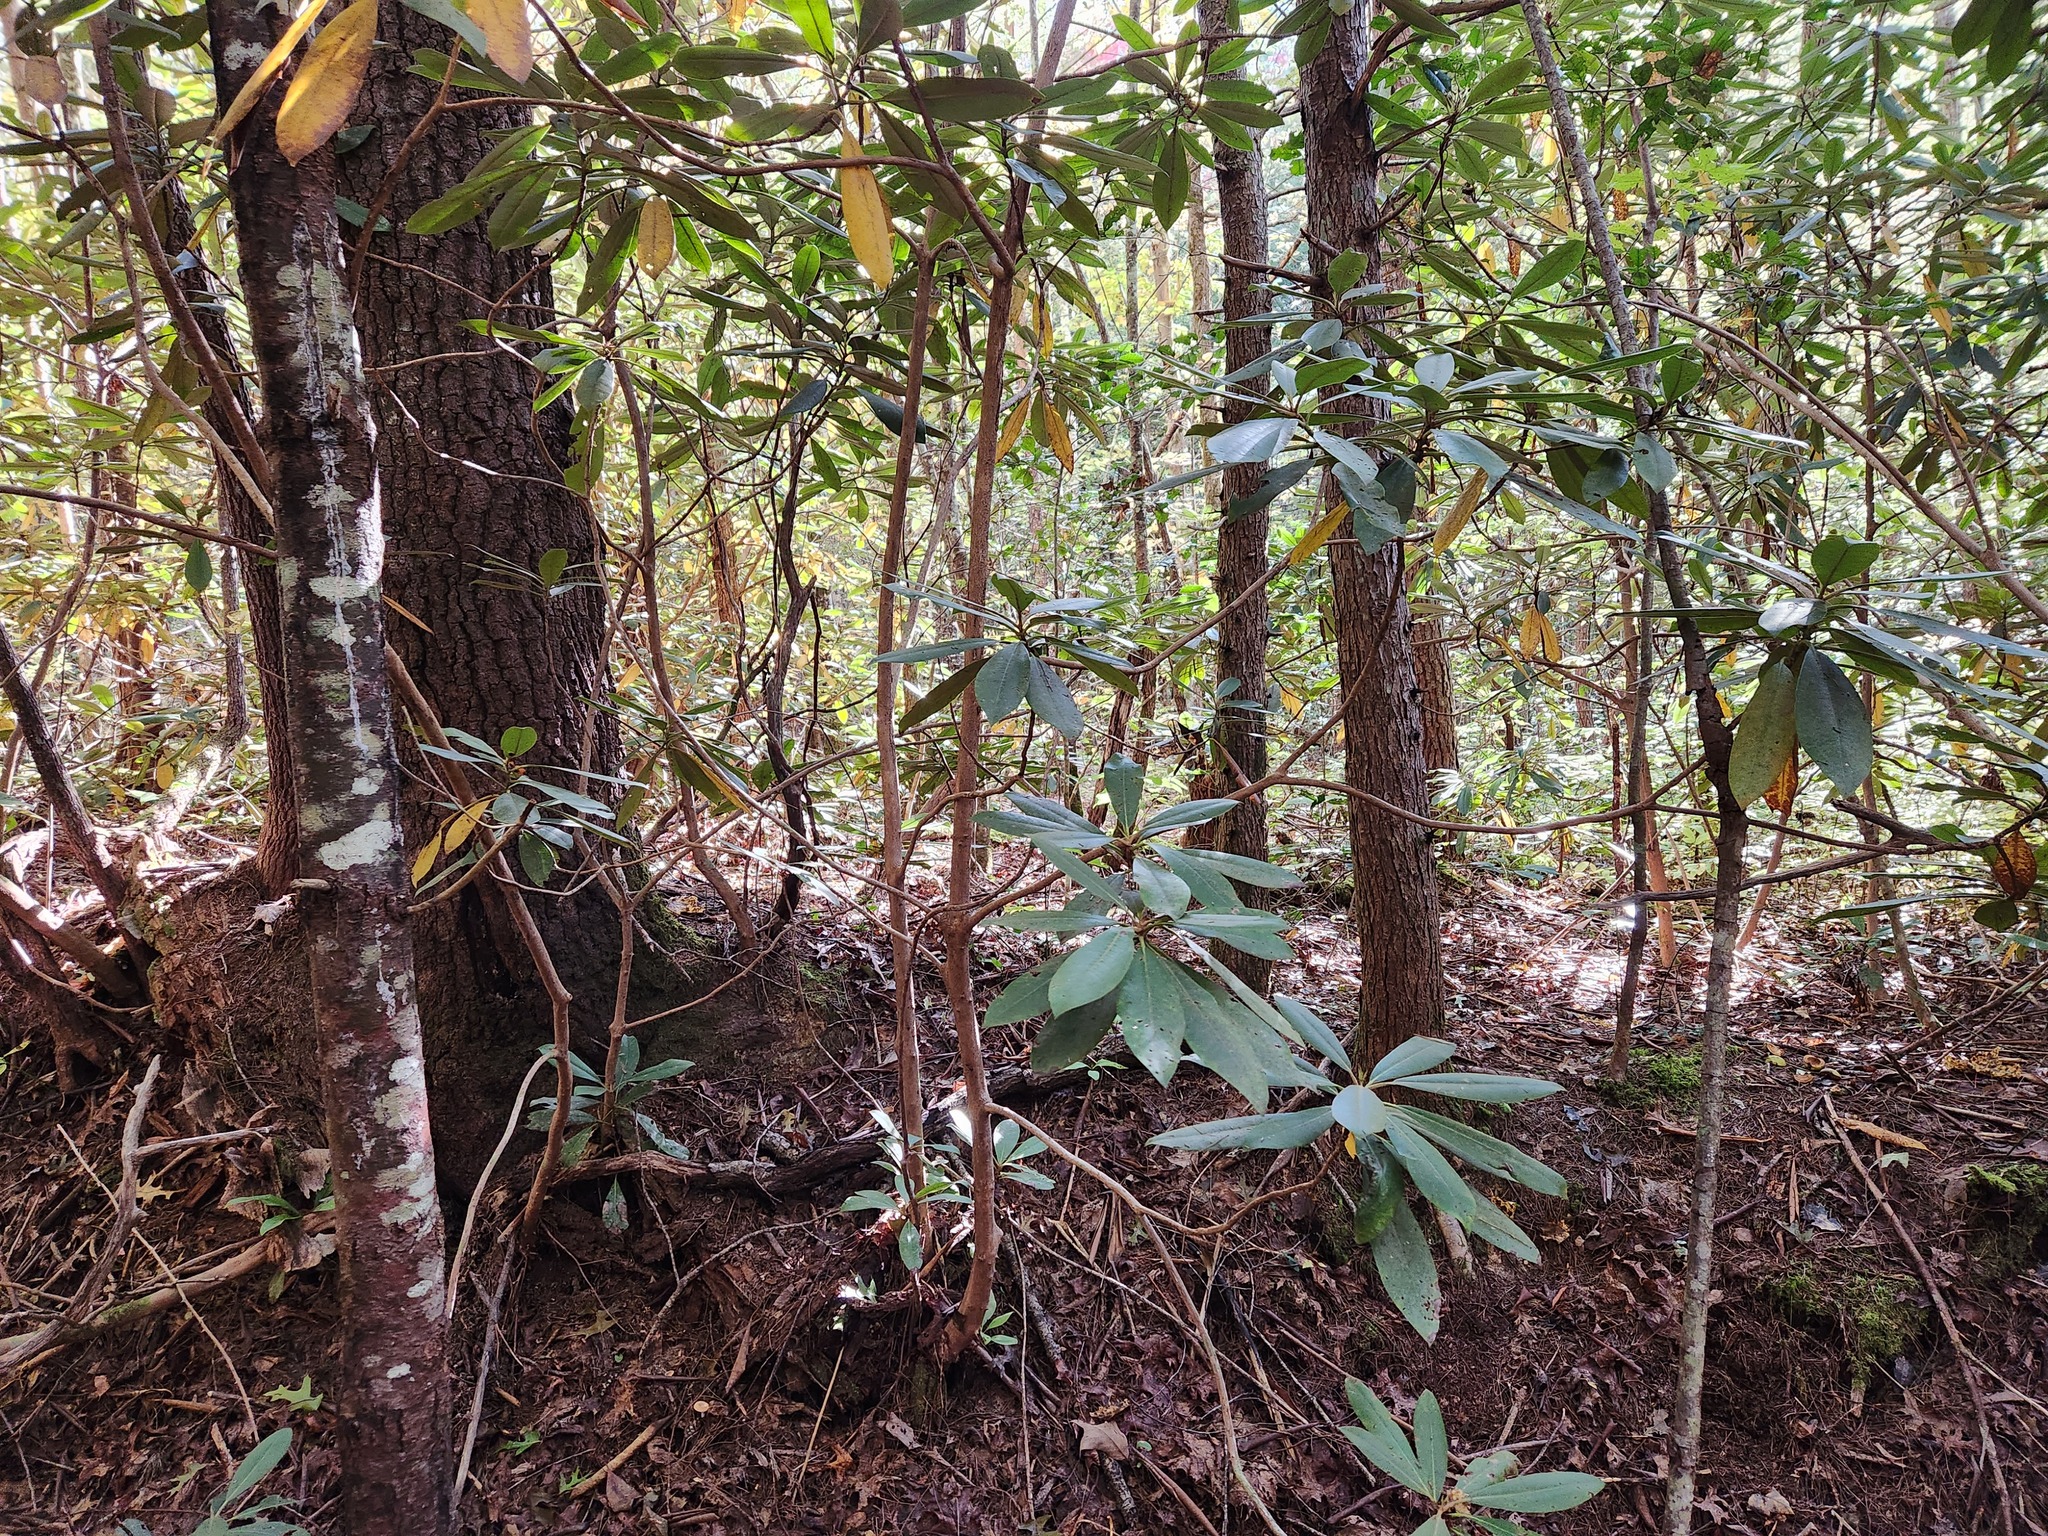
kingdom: Plantae
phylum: Tracheophyta
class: Magnoliopsida
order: Ericales
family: Ericaceae
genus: Rhododendron
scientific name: Rhododendron maximum
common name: Great rhododendron
